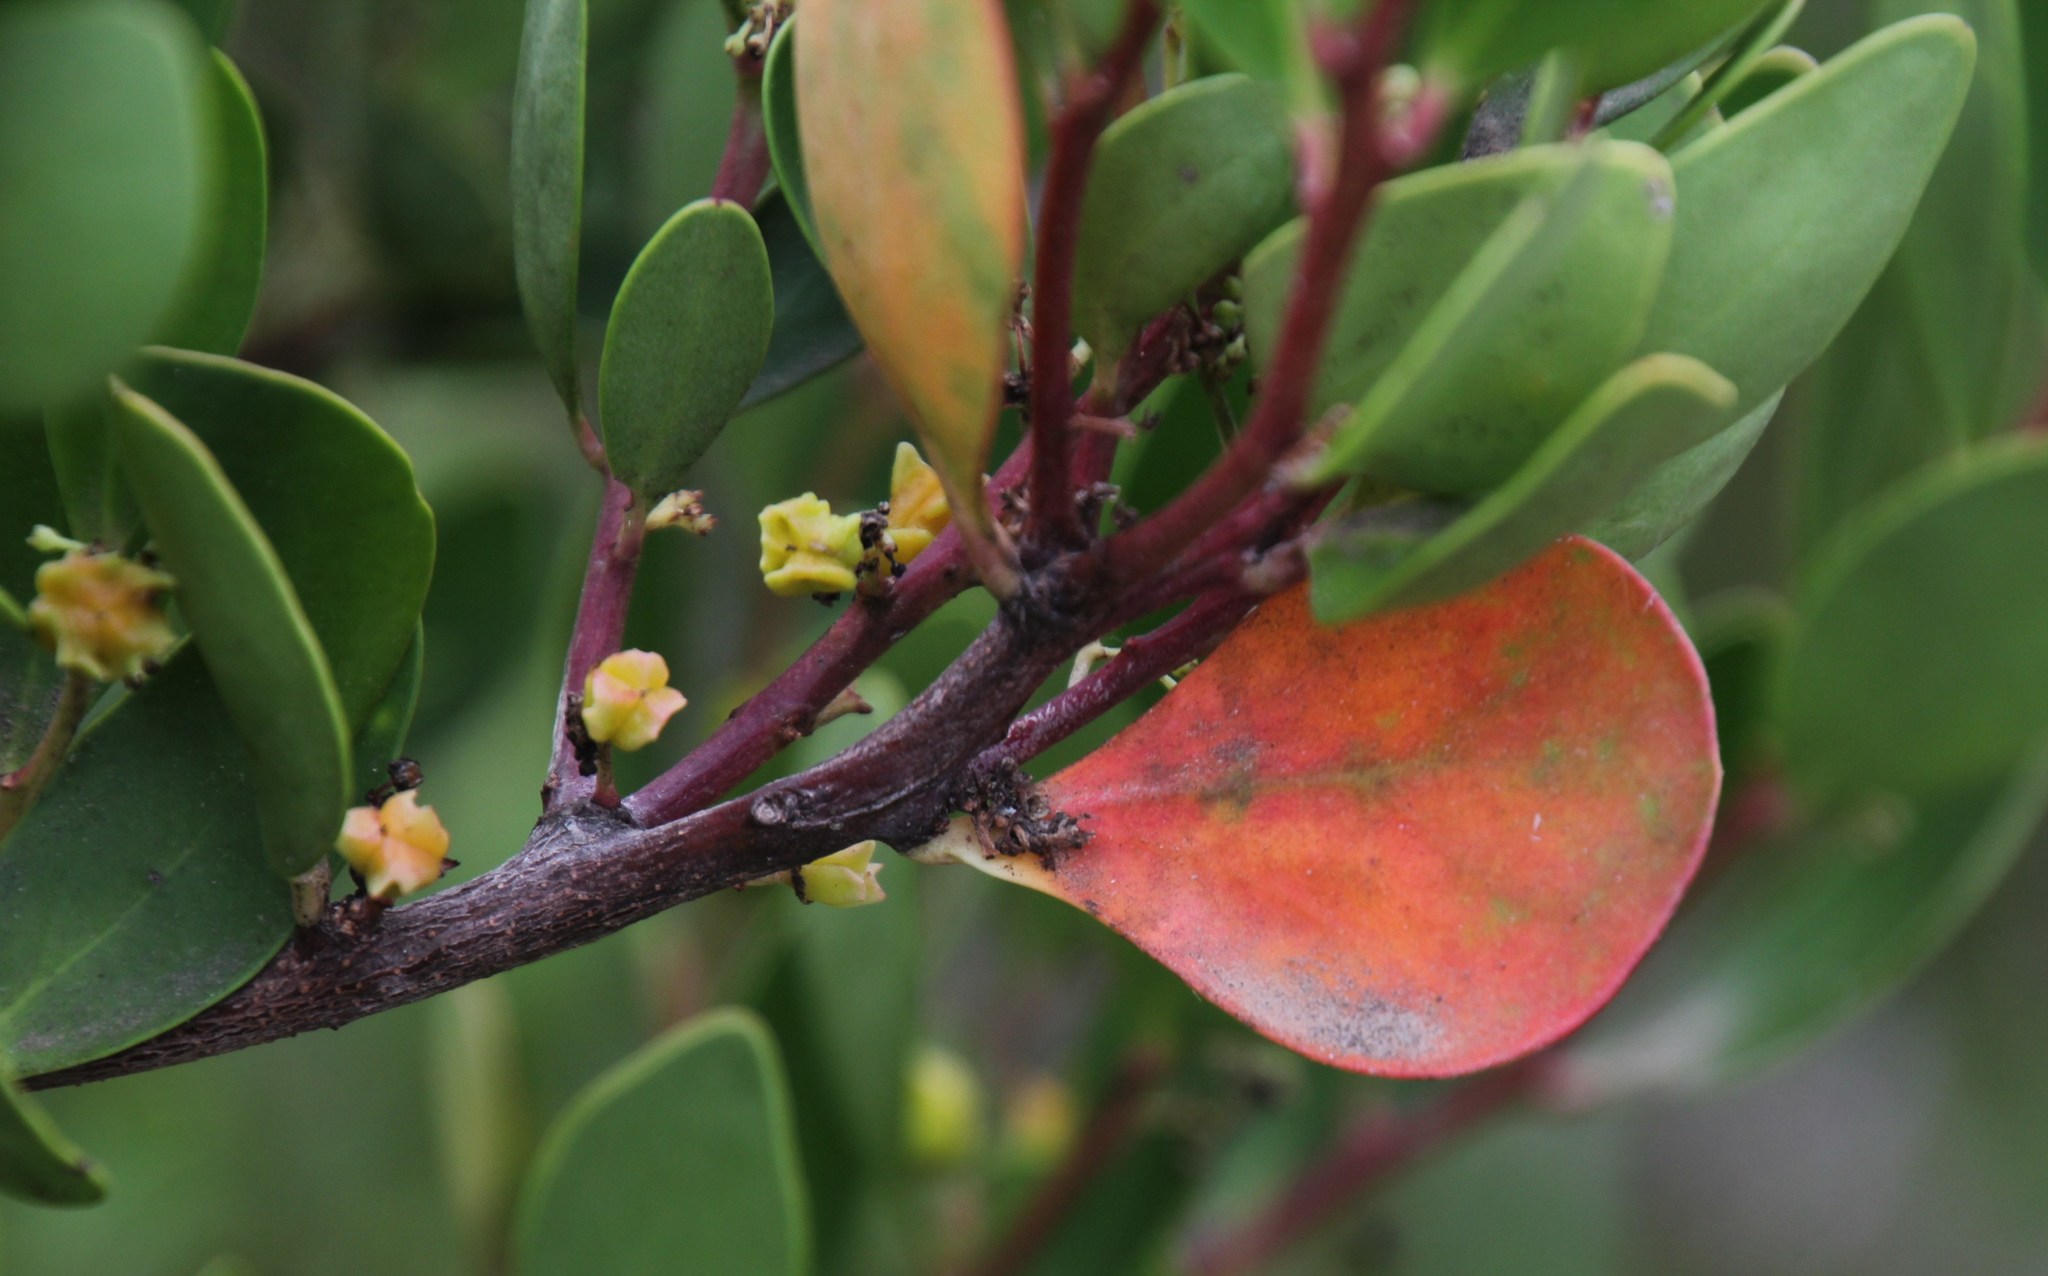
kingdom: Plantae
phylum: Tracheophyta
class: Magnoliopsida
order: Celastrales
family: Celastraceae
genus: Pterocelastrus
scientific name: Pterocelastrus tricuspidatus
